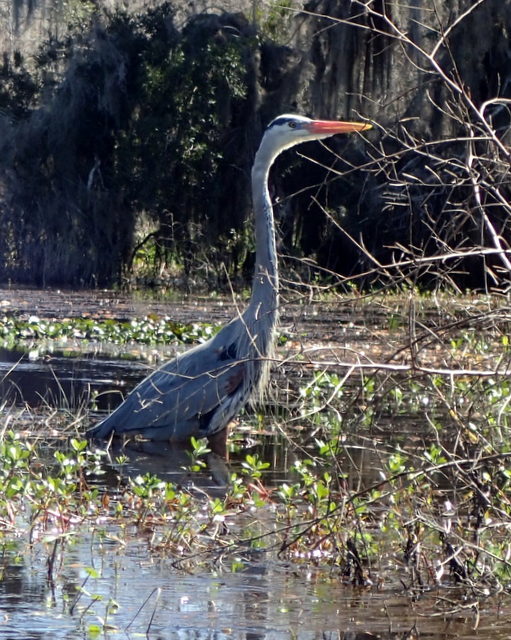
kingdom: Animalia
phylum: Chordata
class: Aves
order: Pelecaniformes
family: Ardeidae
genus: Ardea
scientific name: Ardea herodias
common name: Great blue heron
